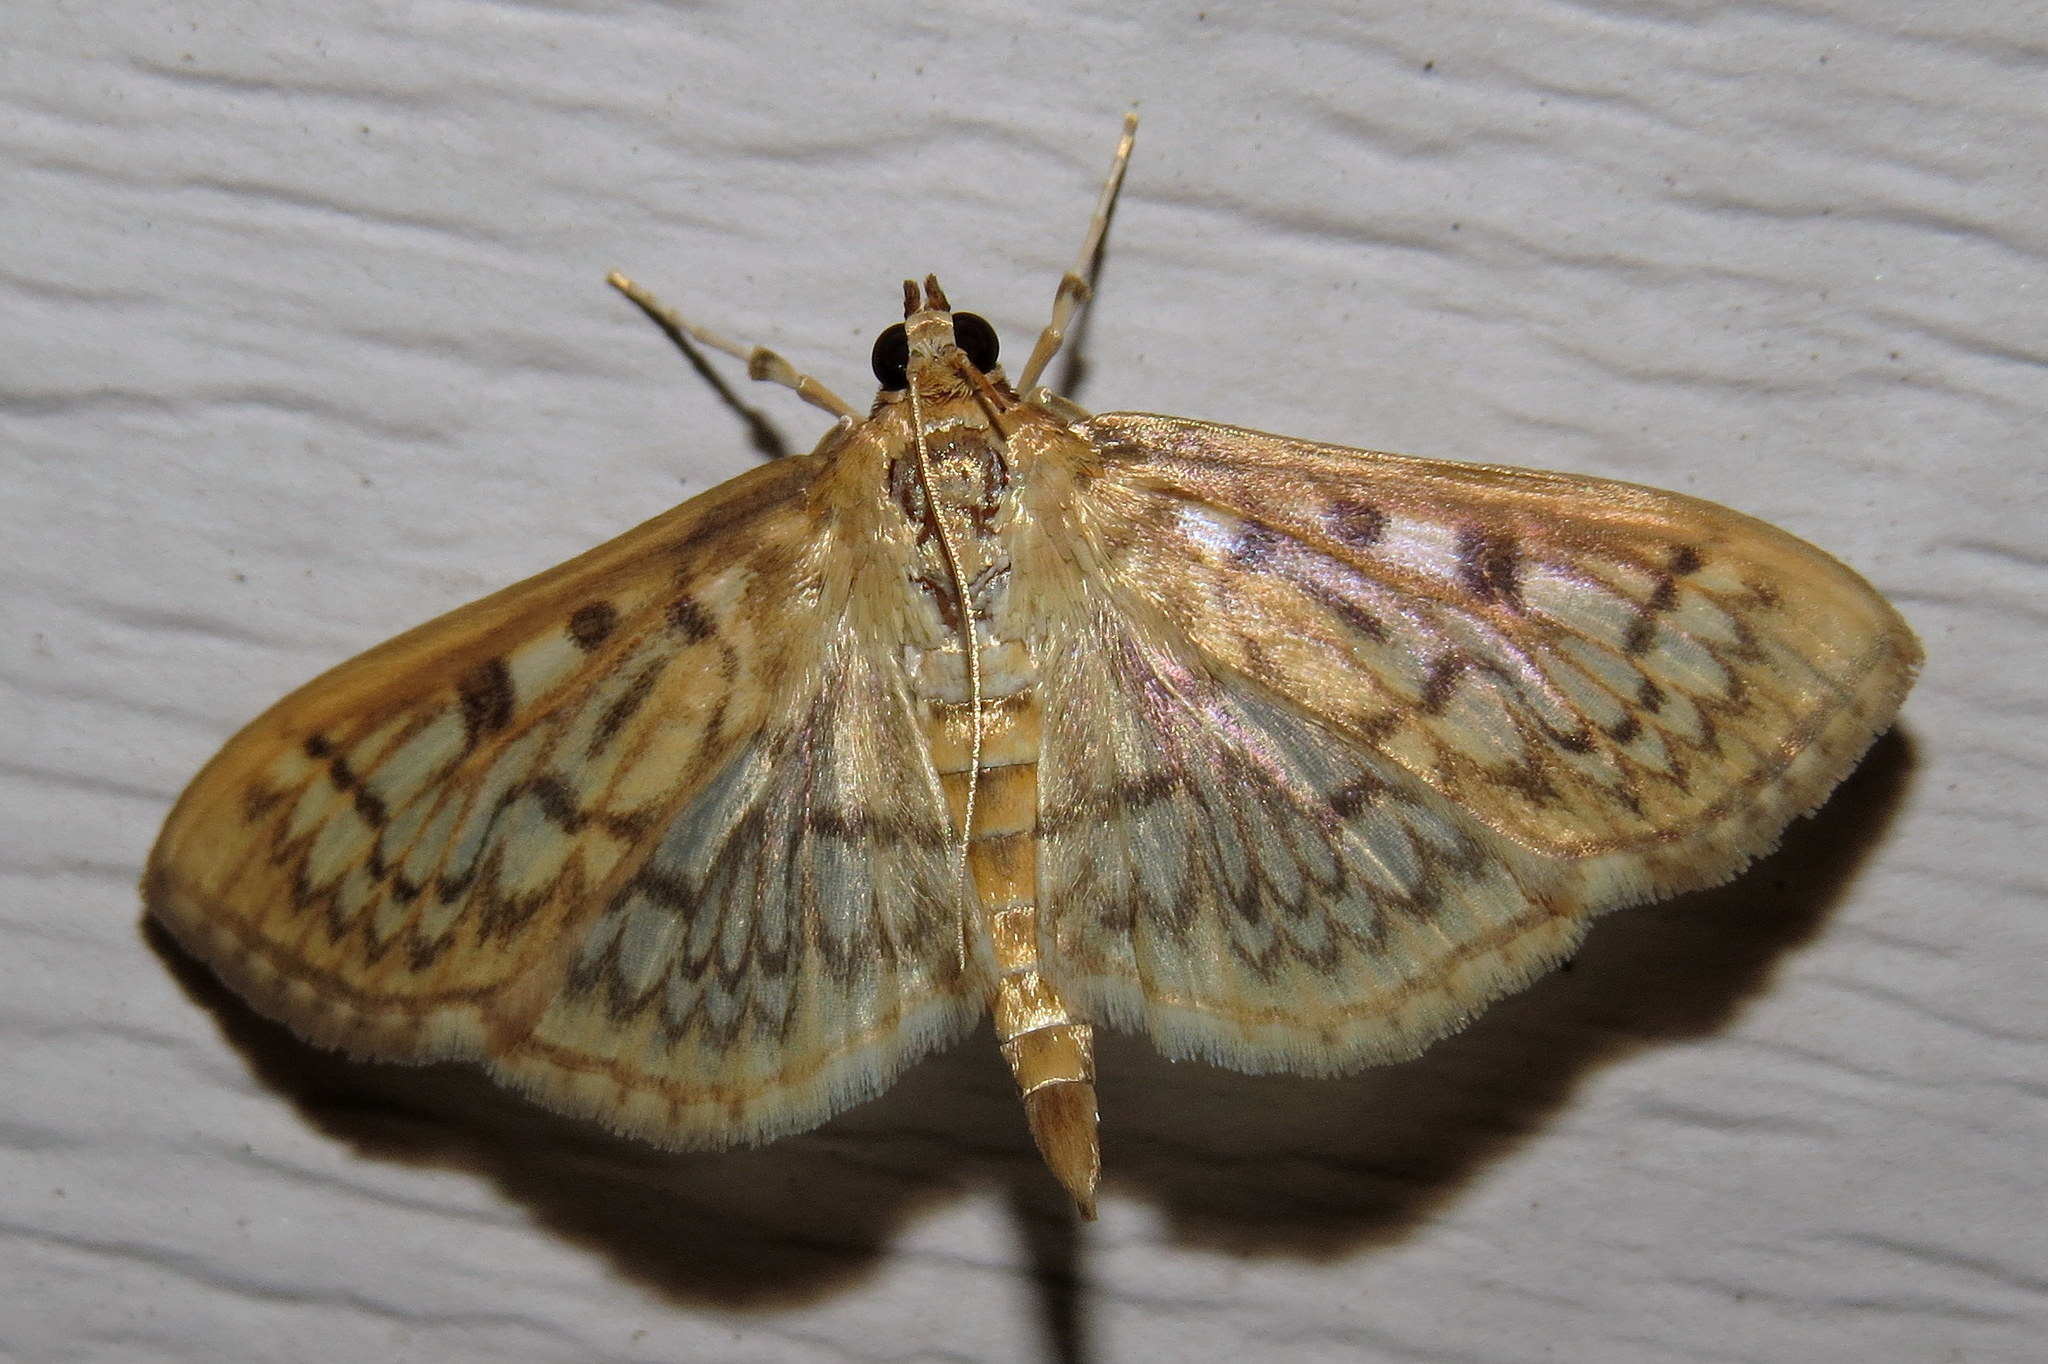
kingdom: Animalia
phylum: Arthropoda
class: Insecta
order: Lepidoptera
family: Crambidae
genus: Herpetogramma
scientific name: Herpetogramma pertextalis
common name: Bold-feathered grass moth
